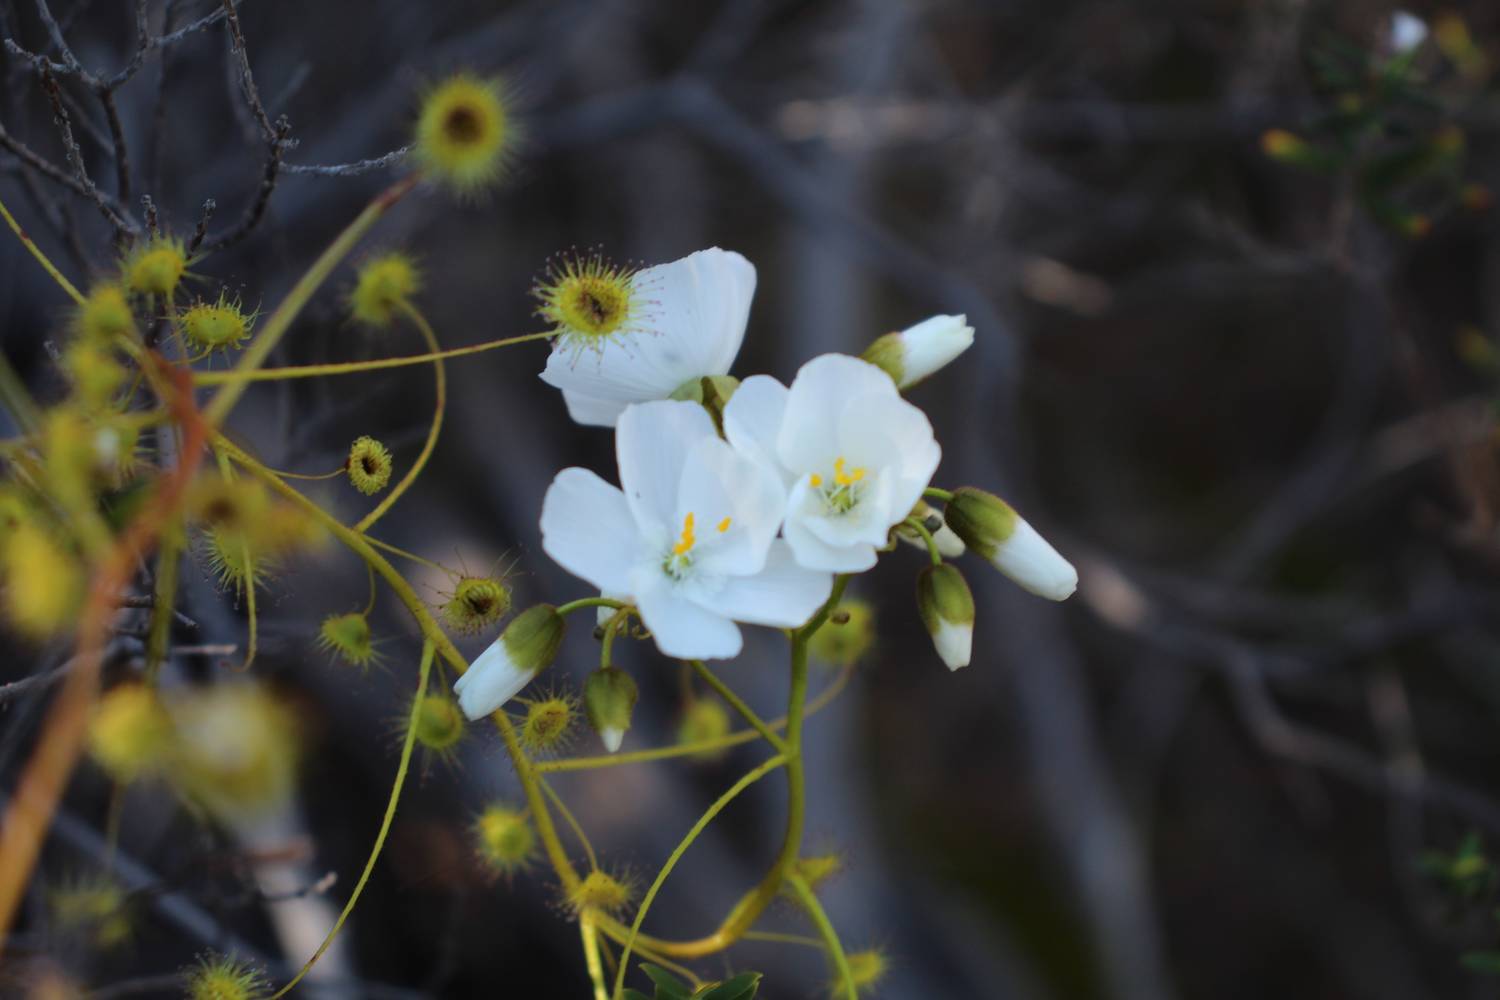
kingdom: Plantae
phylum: Tracheophyta
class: Magnoliopsida
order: Caryophyllales
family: Droseraceae
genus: Drosera
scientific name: Drosera macrantha
